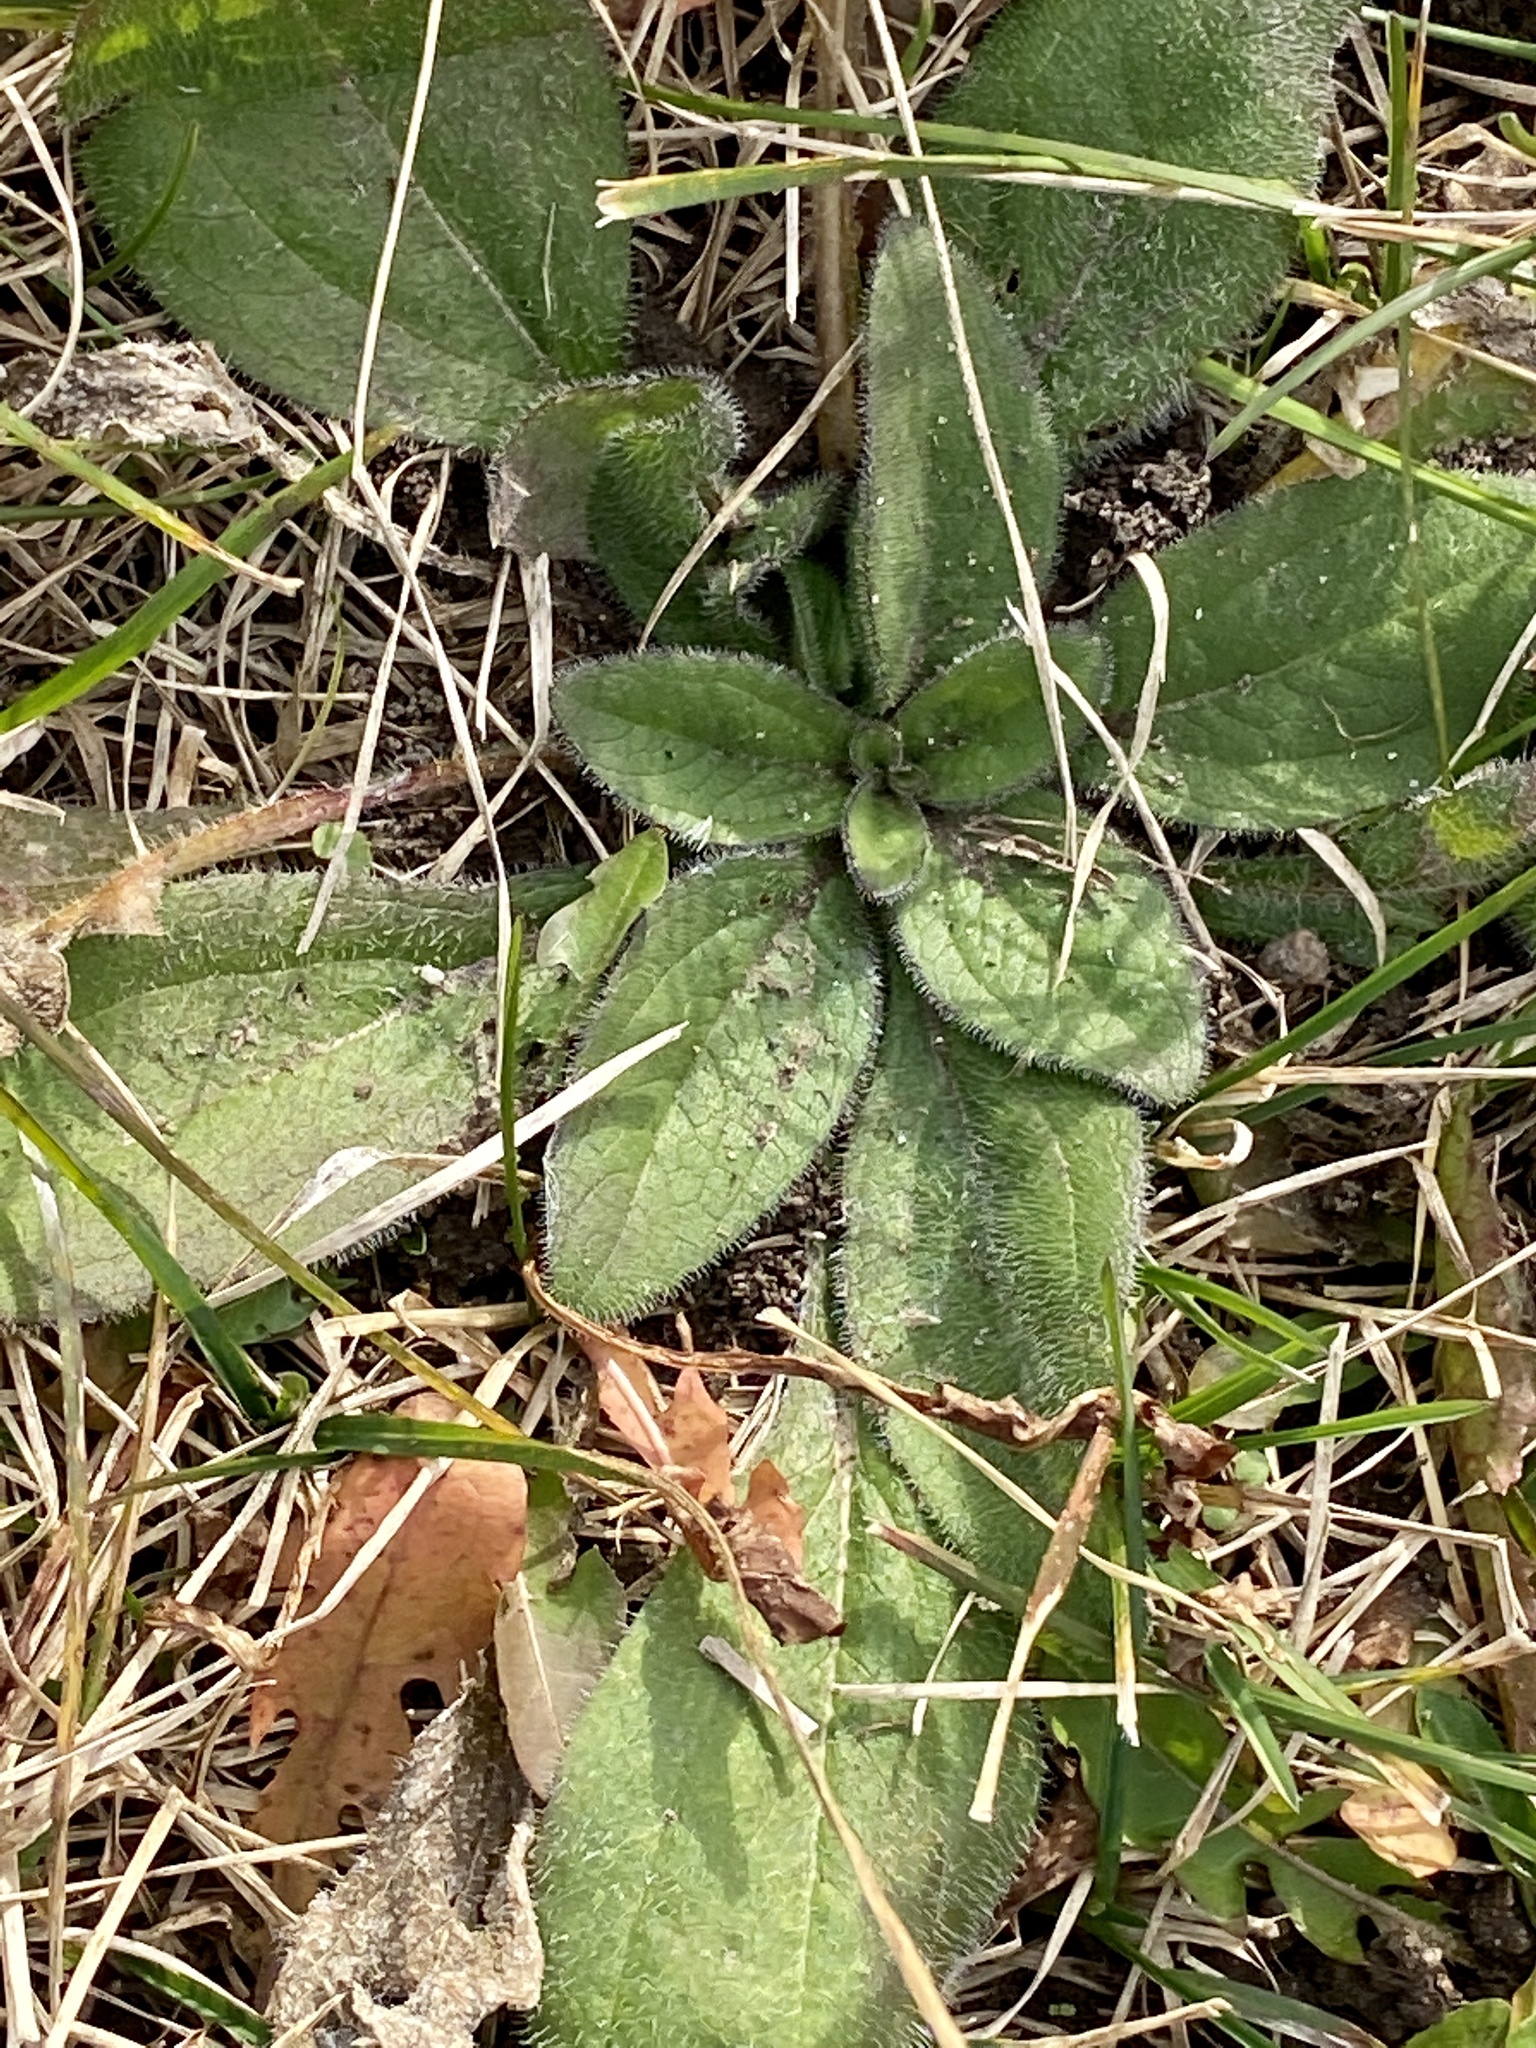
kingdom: Plantae
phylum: Tracheophyta
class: Magnoliopsida
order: Asterales
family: Asteraceae
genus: Rudbeckia
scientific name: Rudbeckia hirta
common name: Black-eyed-susan
